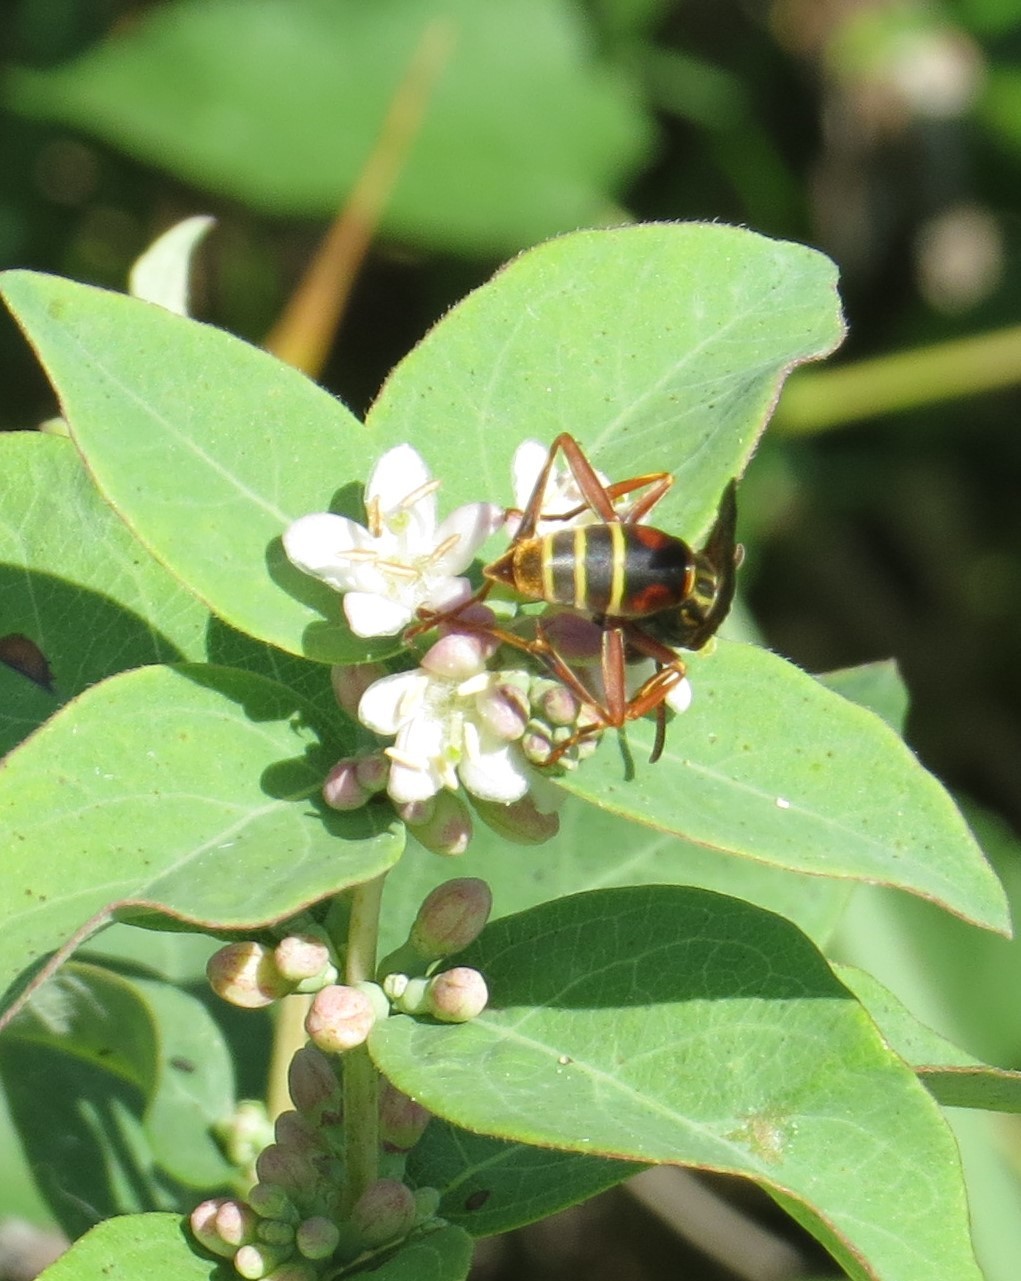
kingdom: Animalia
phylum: Arthropoda
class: Insecta
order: Hymenoptera
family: Eumenidae
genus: Polistes
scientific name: Polistes fuscatus
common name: Dark paper wasp
